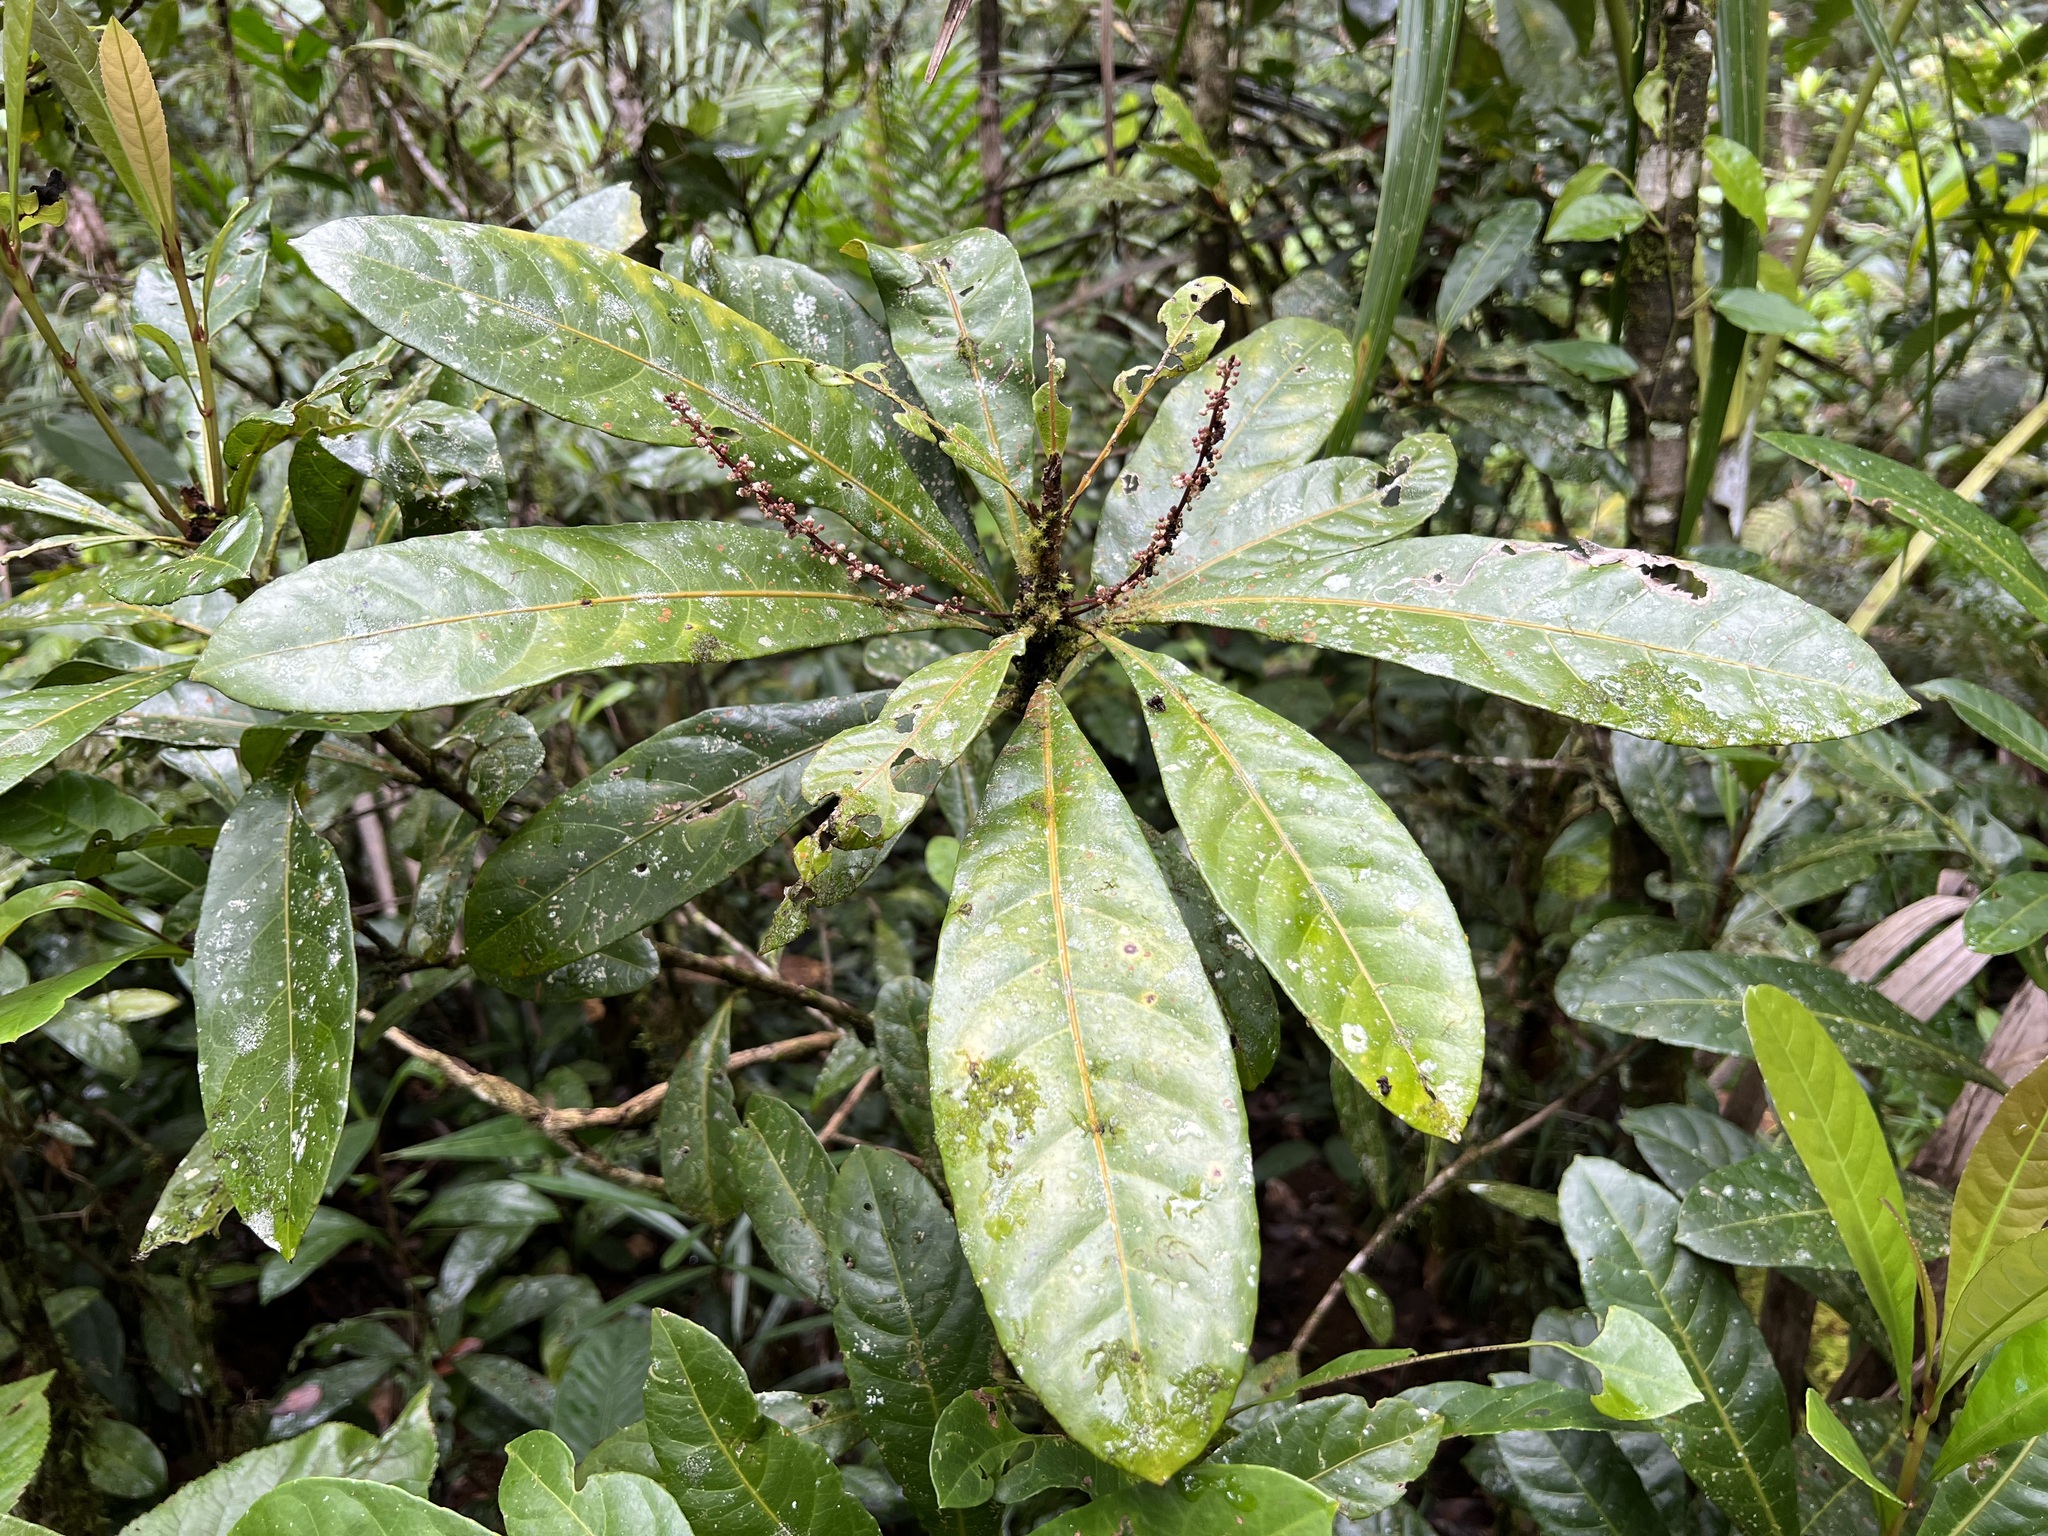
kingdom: Plantae
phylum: Tracheophyta
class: Magnoliopsida
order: Malpighiales
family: Euphorbiaceae
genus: Cleidion
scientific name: Cleidion lasiophyllum
